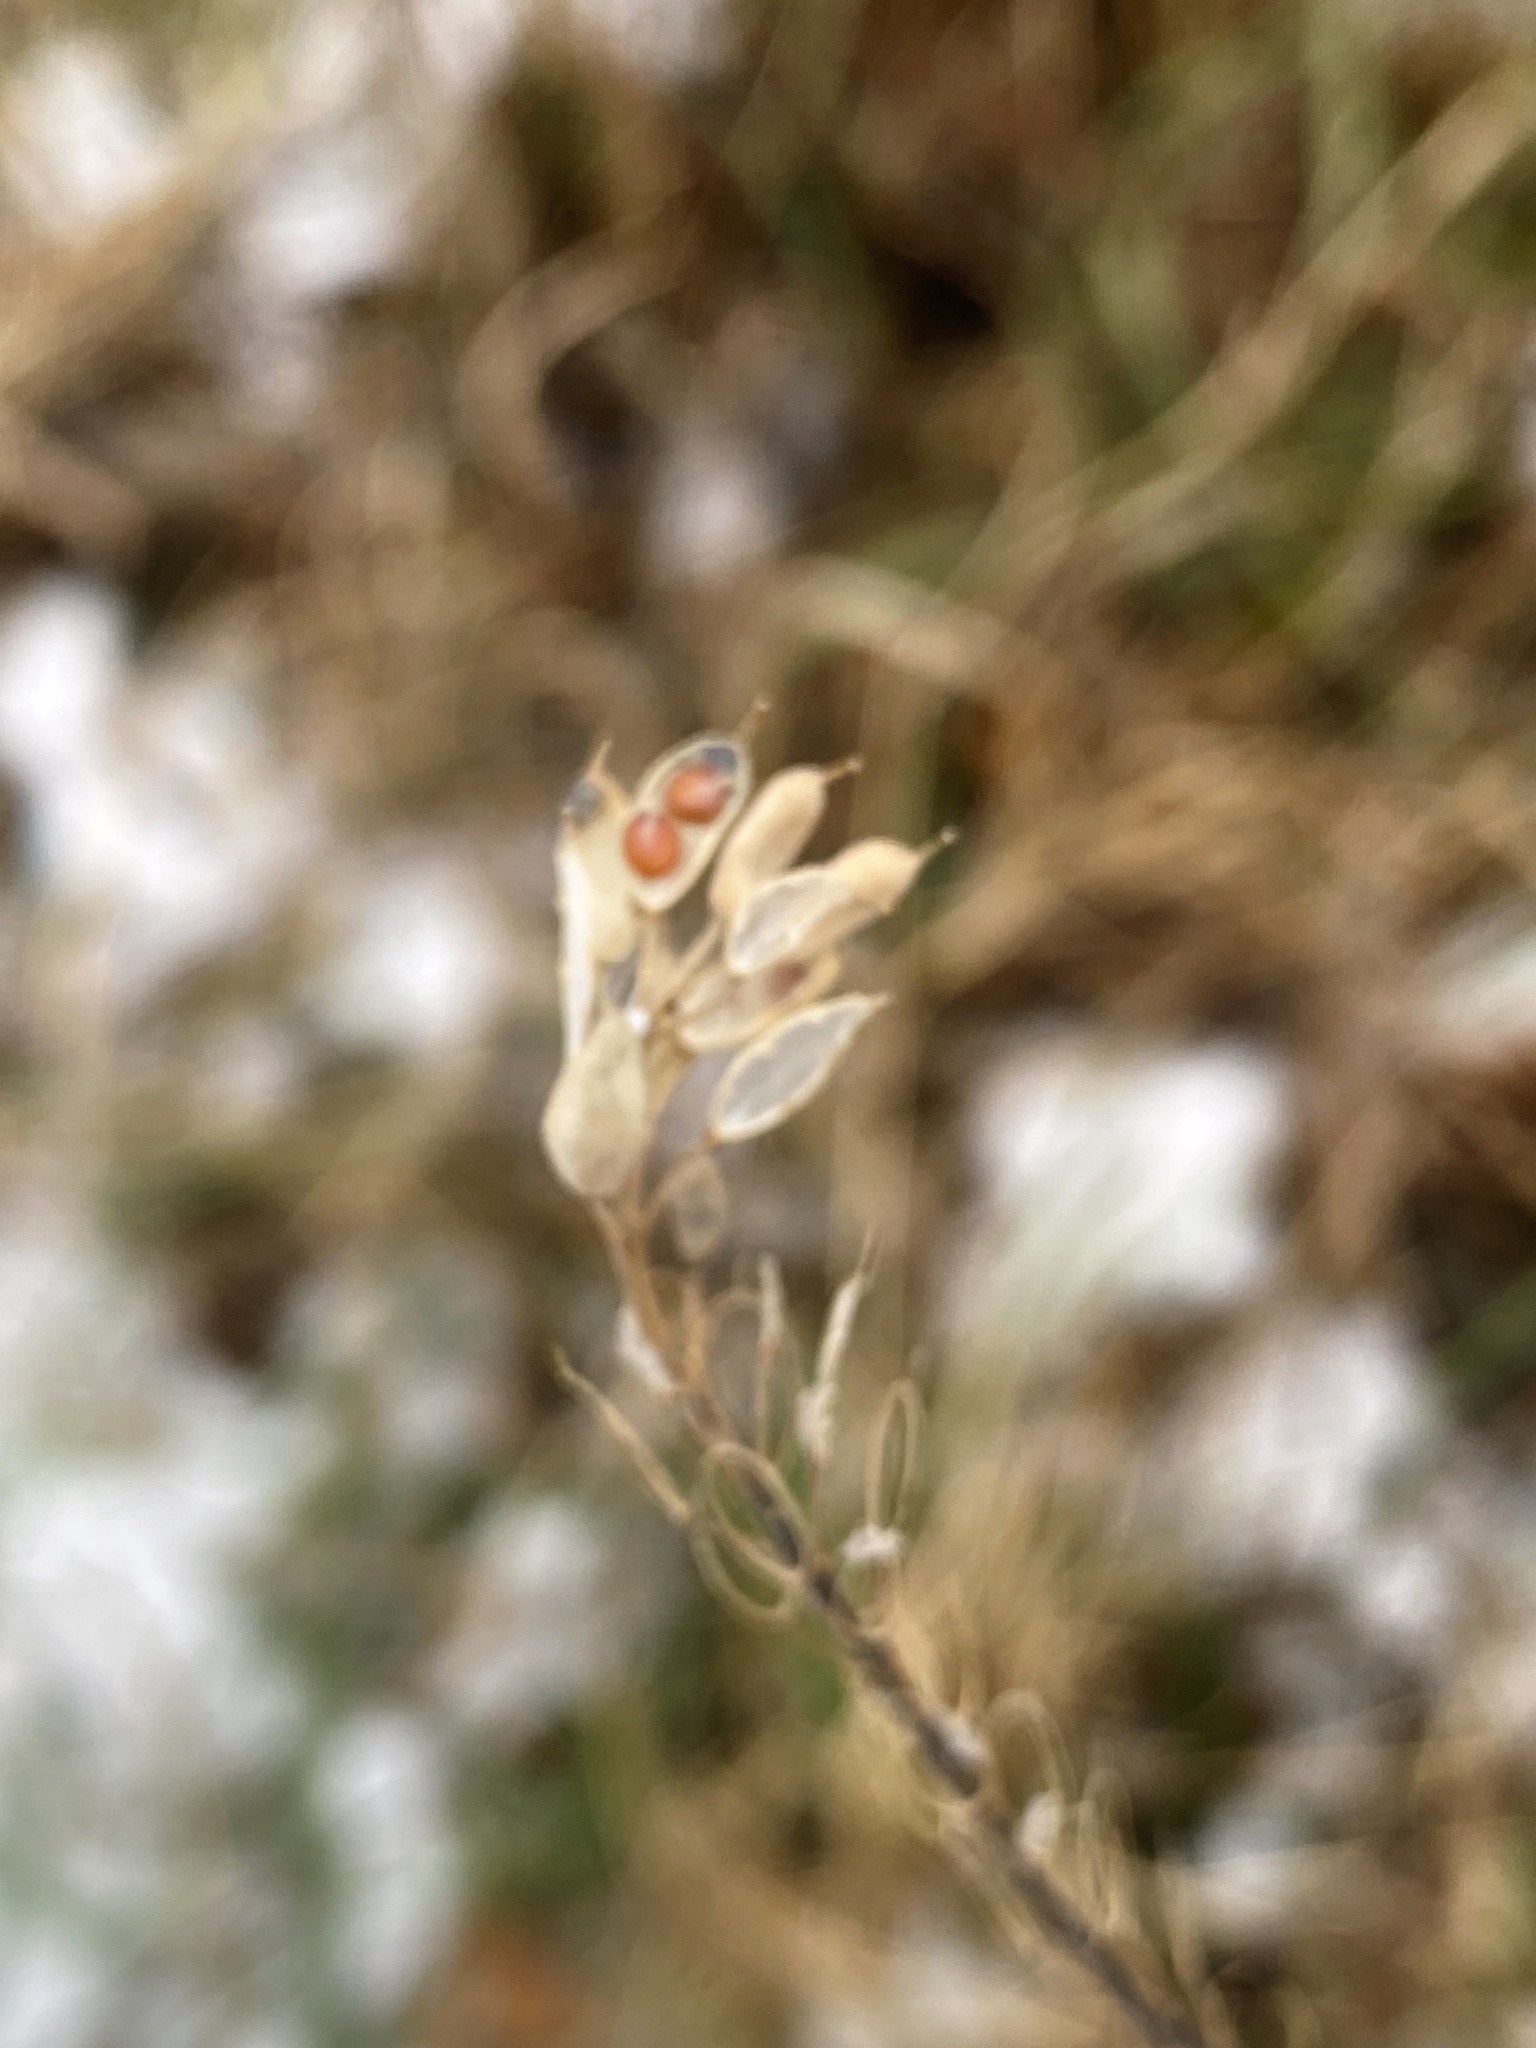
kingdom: Plantae
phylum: Tracheophyta
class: Magnoliopsida
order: Brassicales
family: Brassicaceae
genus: Berteroa
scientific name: Berteroa incana
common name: Hoary alison
